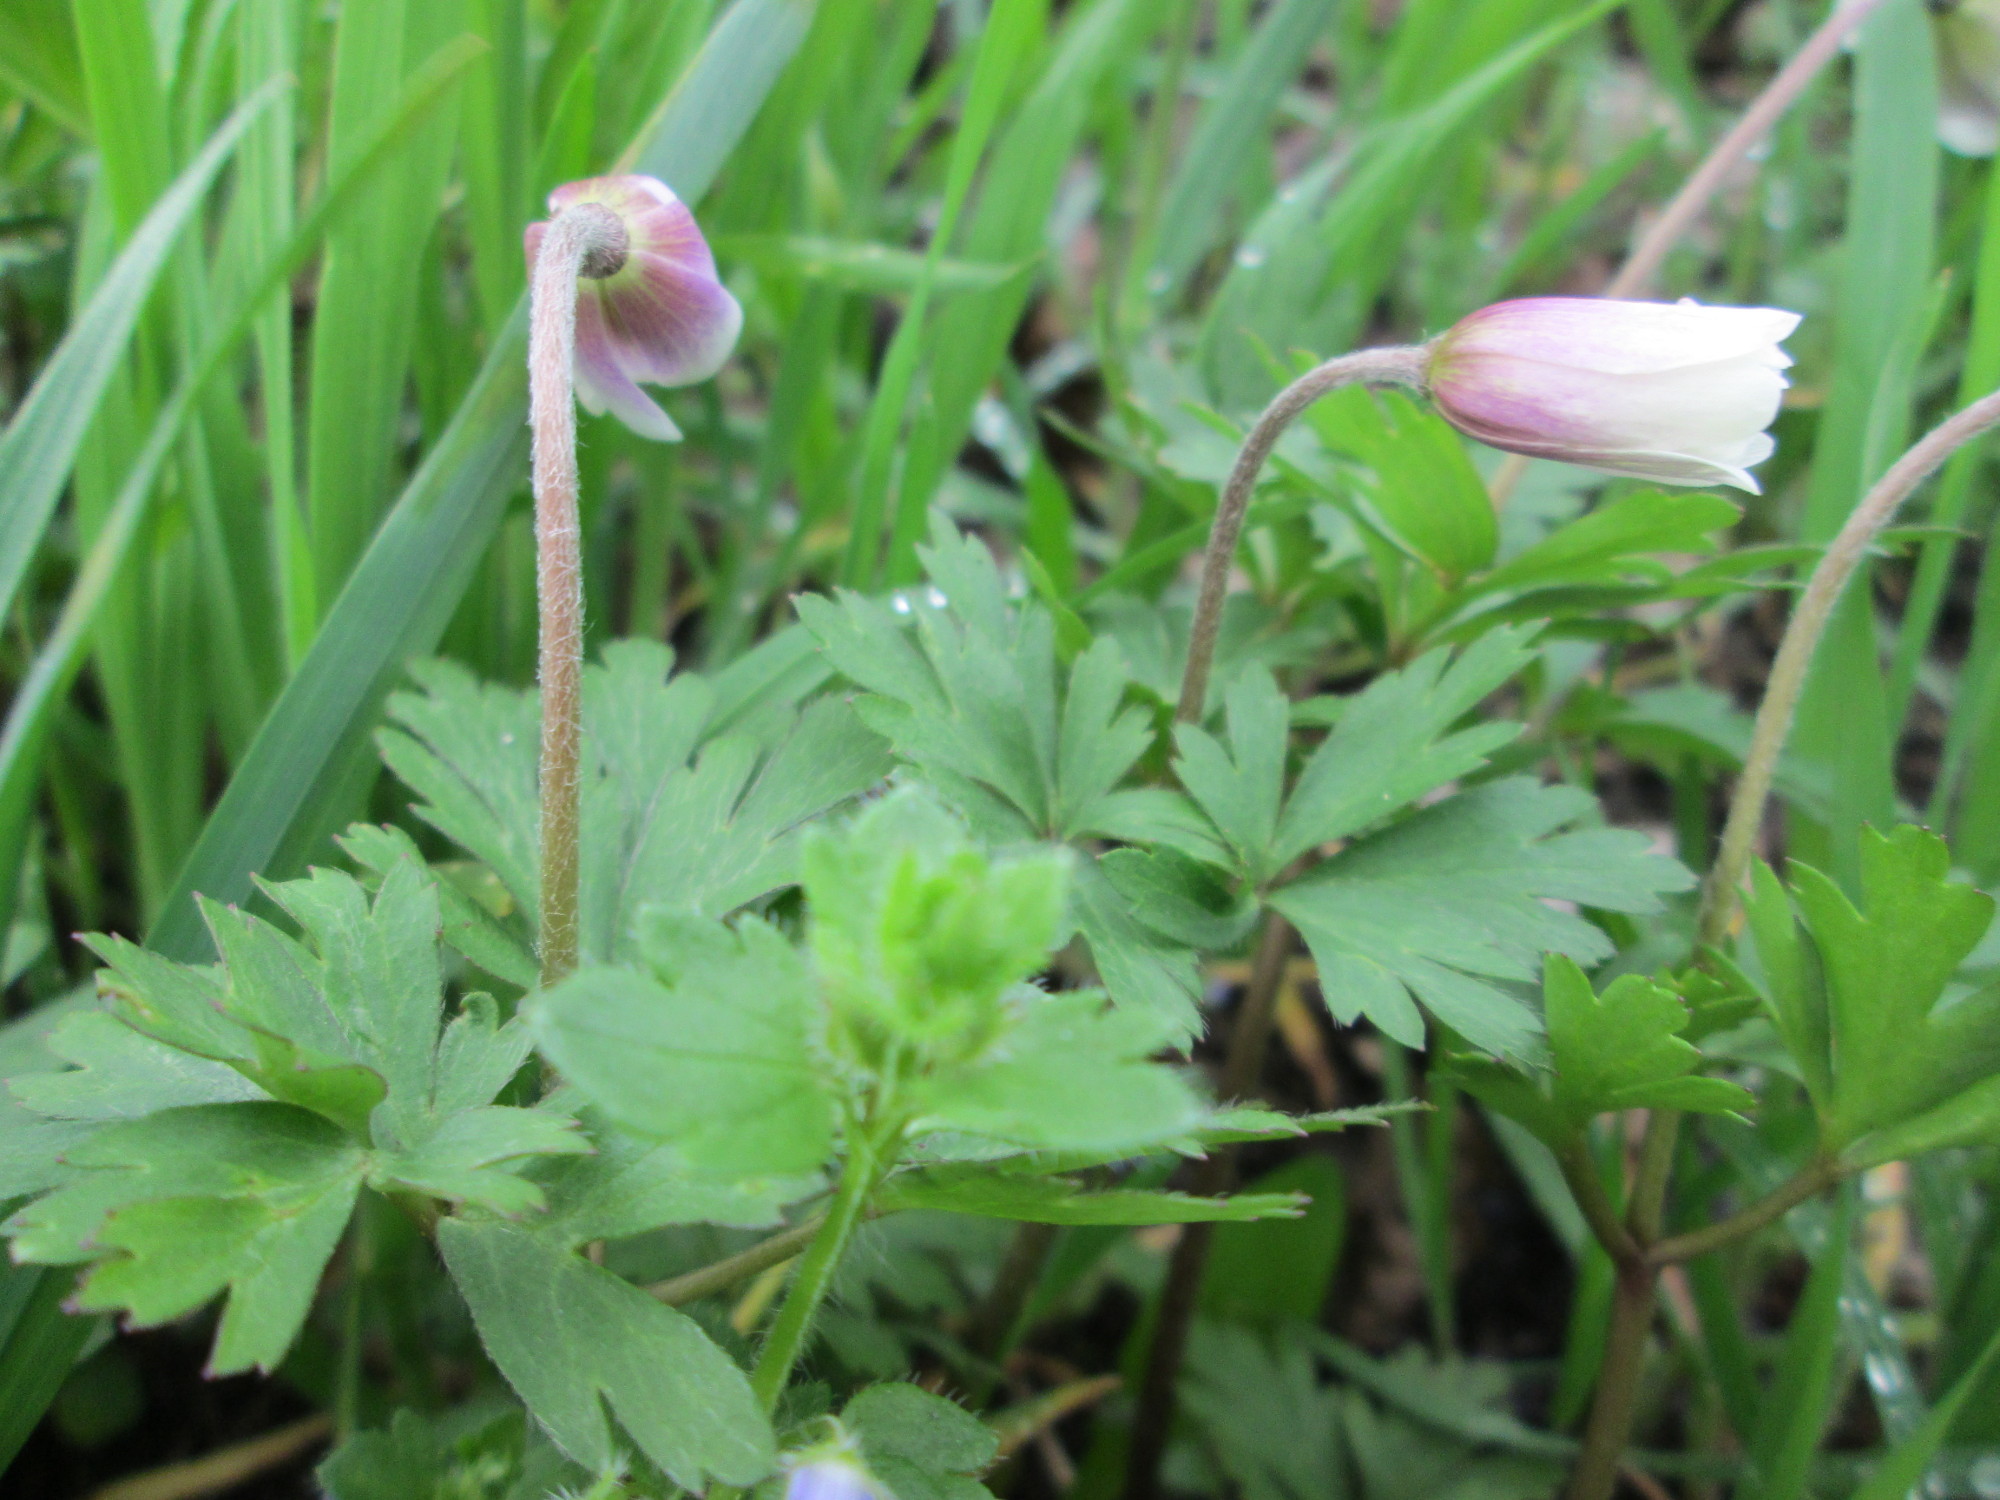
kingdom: Plantae
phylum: Tracheophyta
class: Magnoliopsida
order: Ranunculales
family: Ranunculaceae
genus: Anemone
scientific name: Anemone nemorosa
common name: Wood anemone
